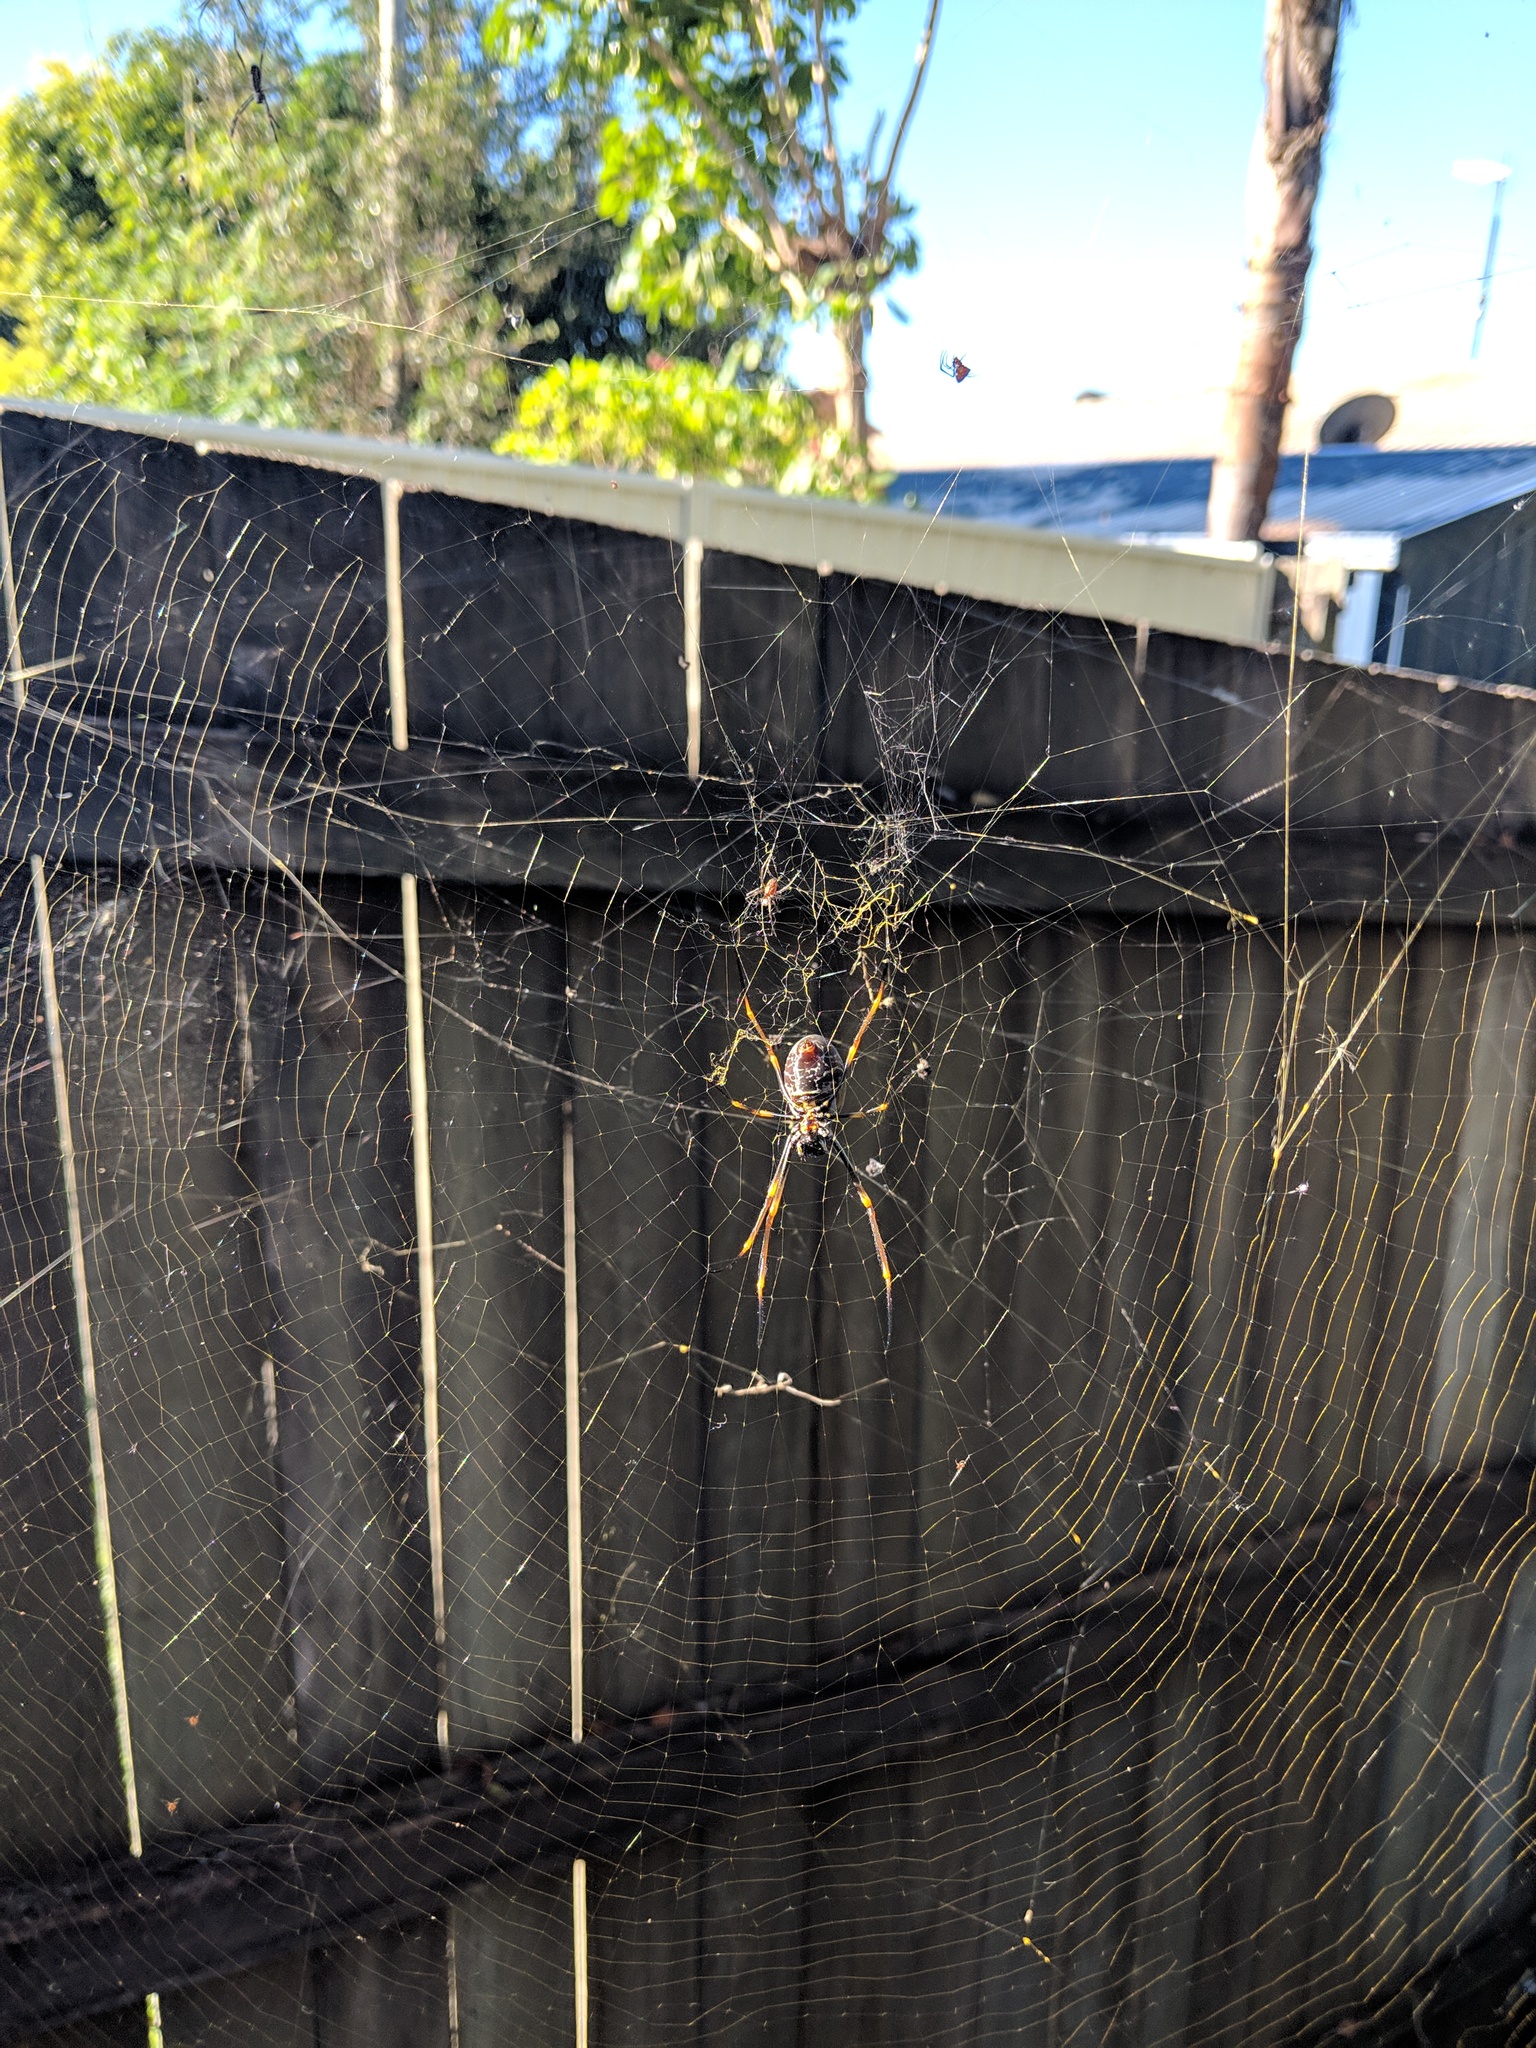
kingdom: Animalia
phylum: Arthropoda
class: Arachnida
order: Araneae
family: Araneidae
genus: Trichonephila
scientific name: Trichonephila plumipes
